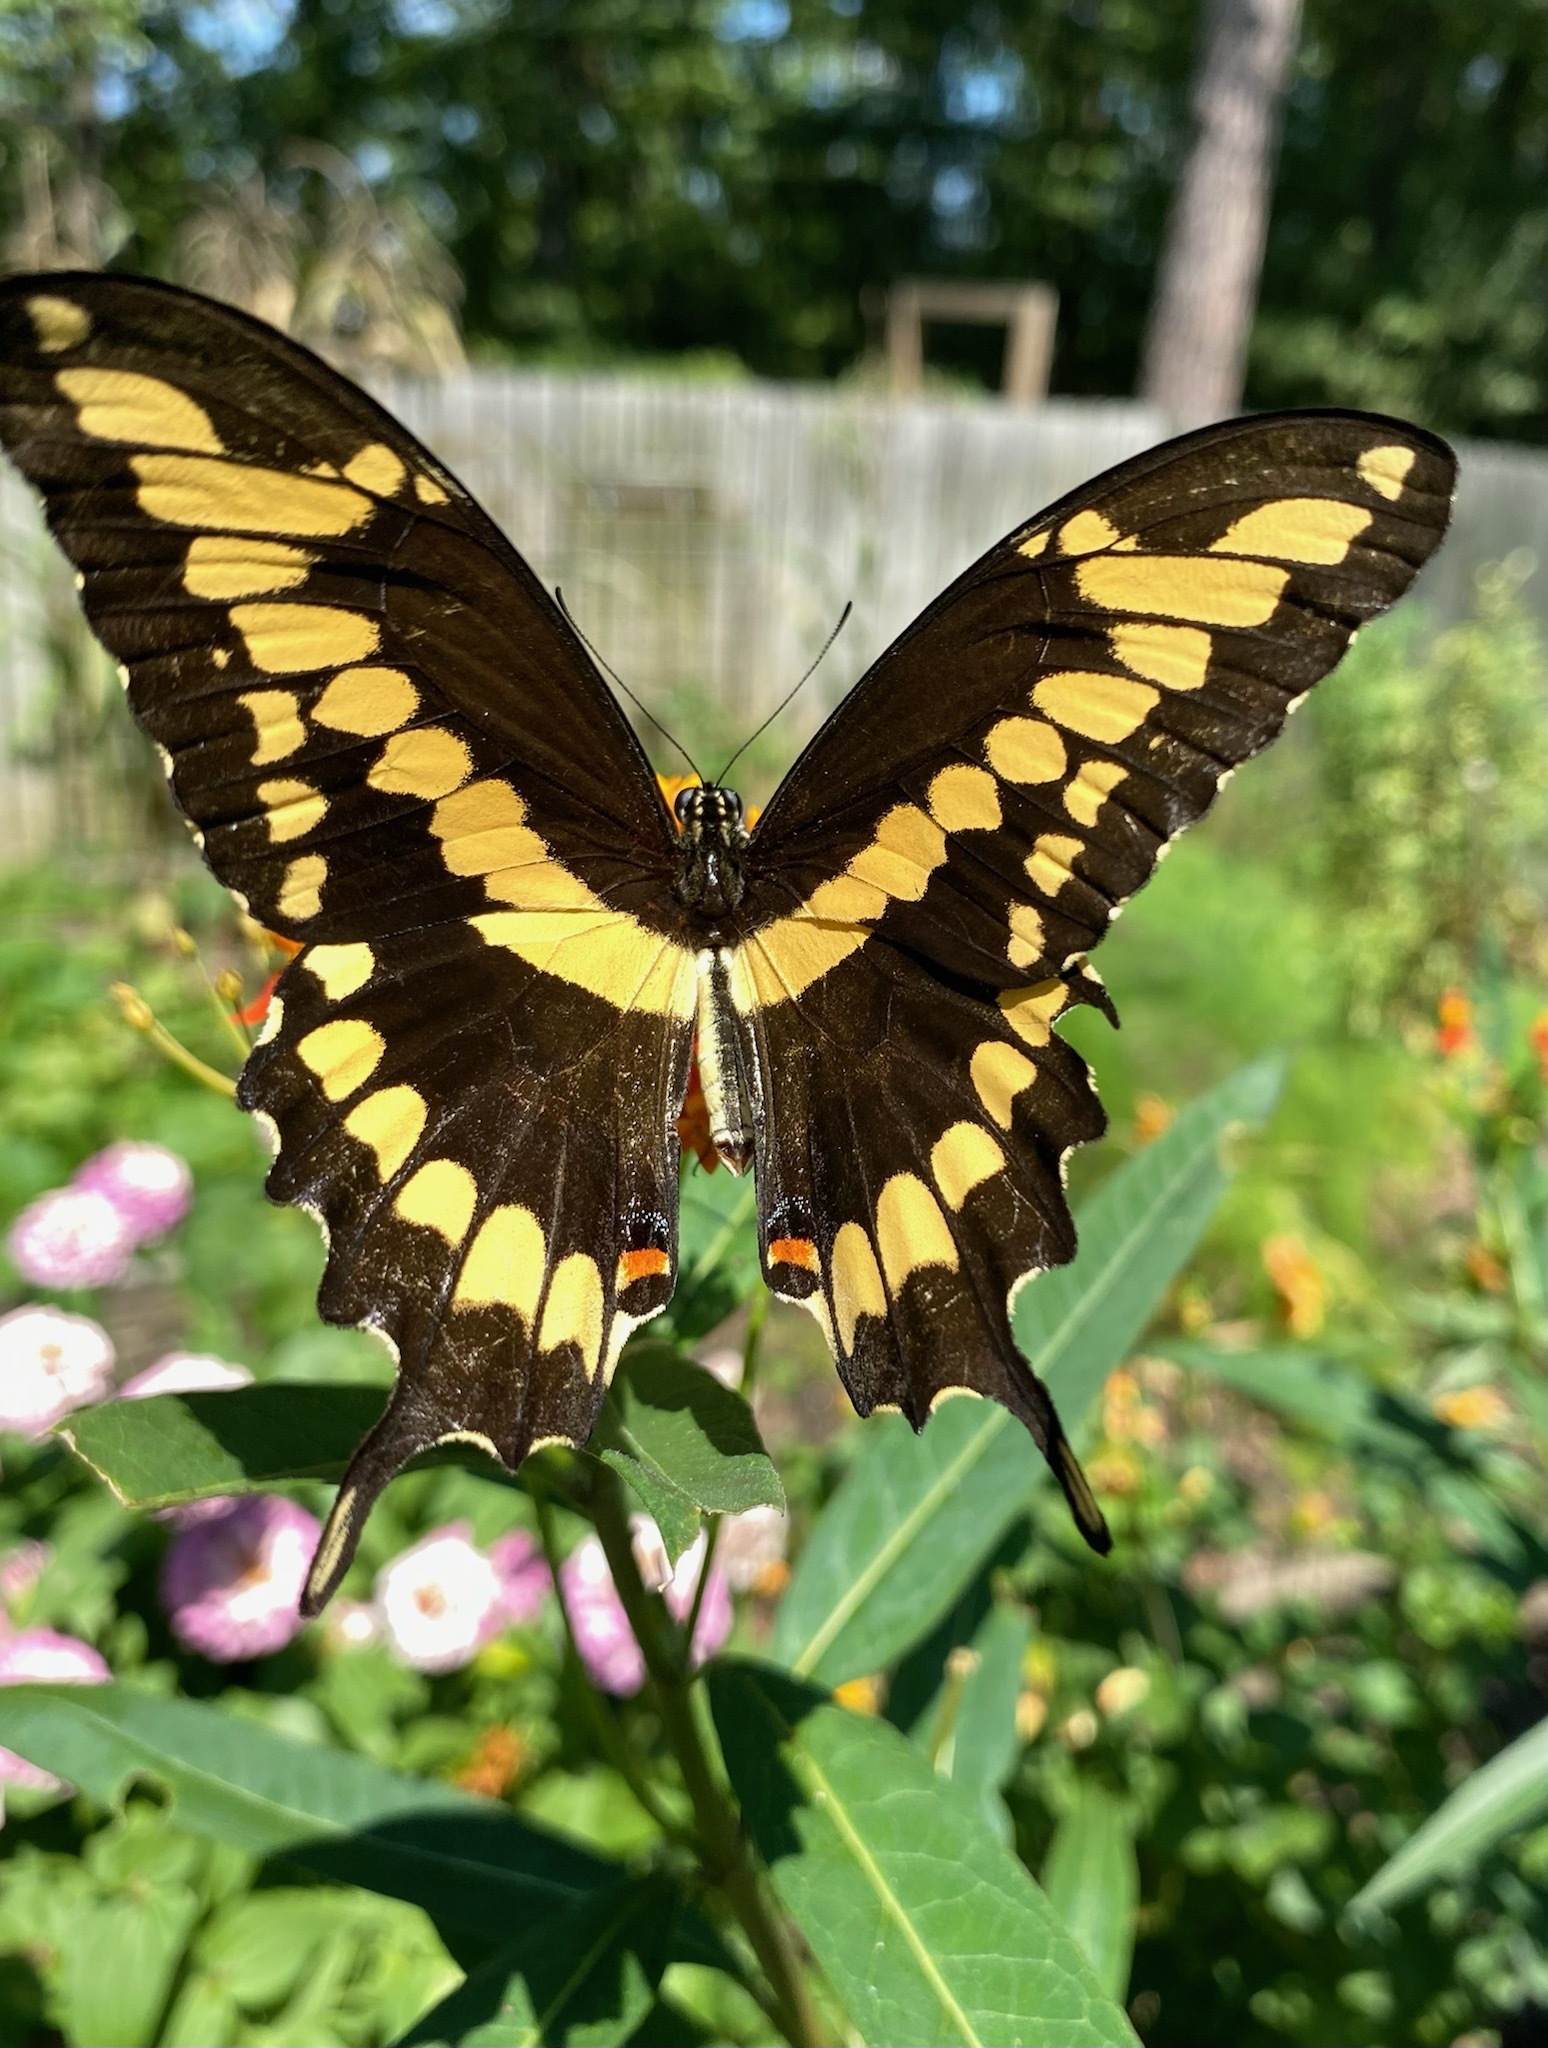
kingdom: Animalia
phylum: Arthropoda
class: Insecta
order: Lepidoptera
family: Papilionidae
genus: Papilio
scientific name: Papilio cresphontes
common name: Giant swallowtail
